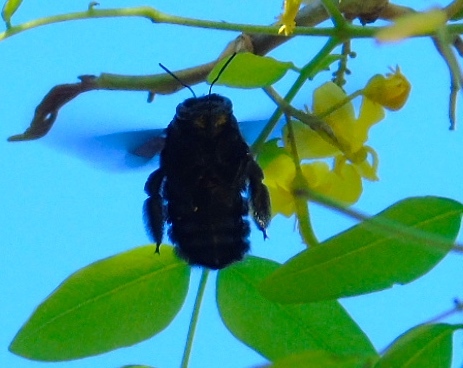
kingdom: Animalia
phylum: Arthropoda
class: Insecta
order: Hymenoptera
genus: Neoxylocopa
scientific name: Neoxylocopa
